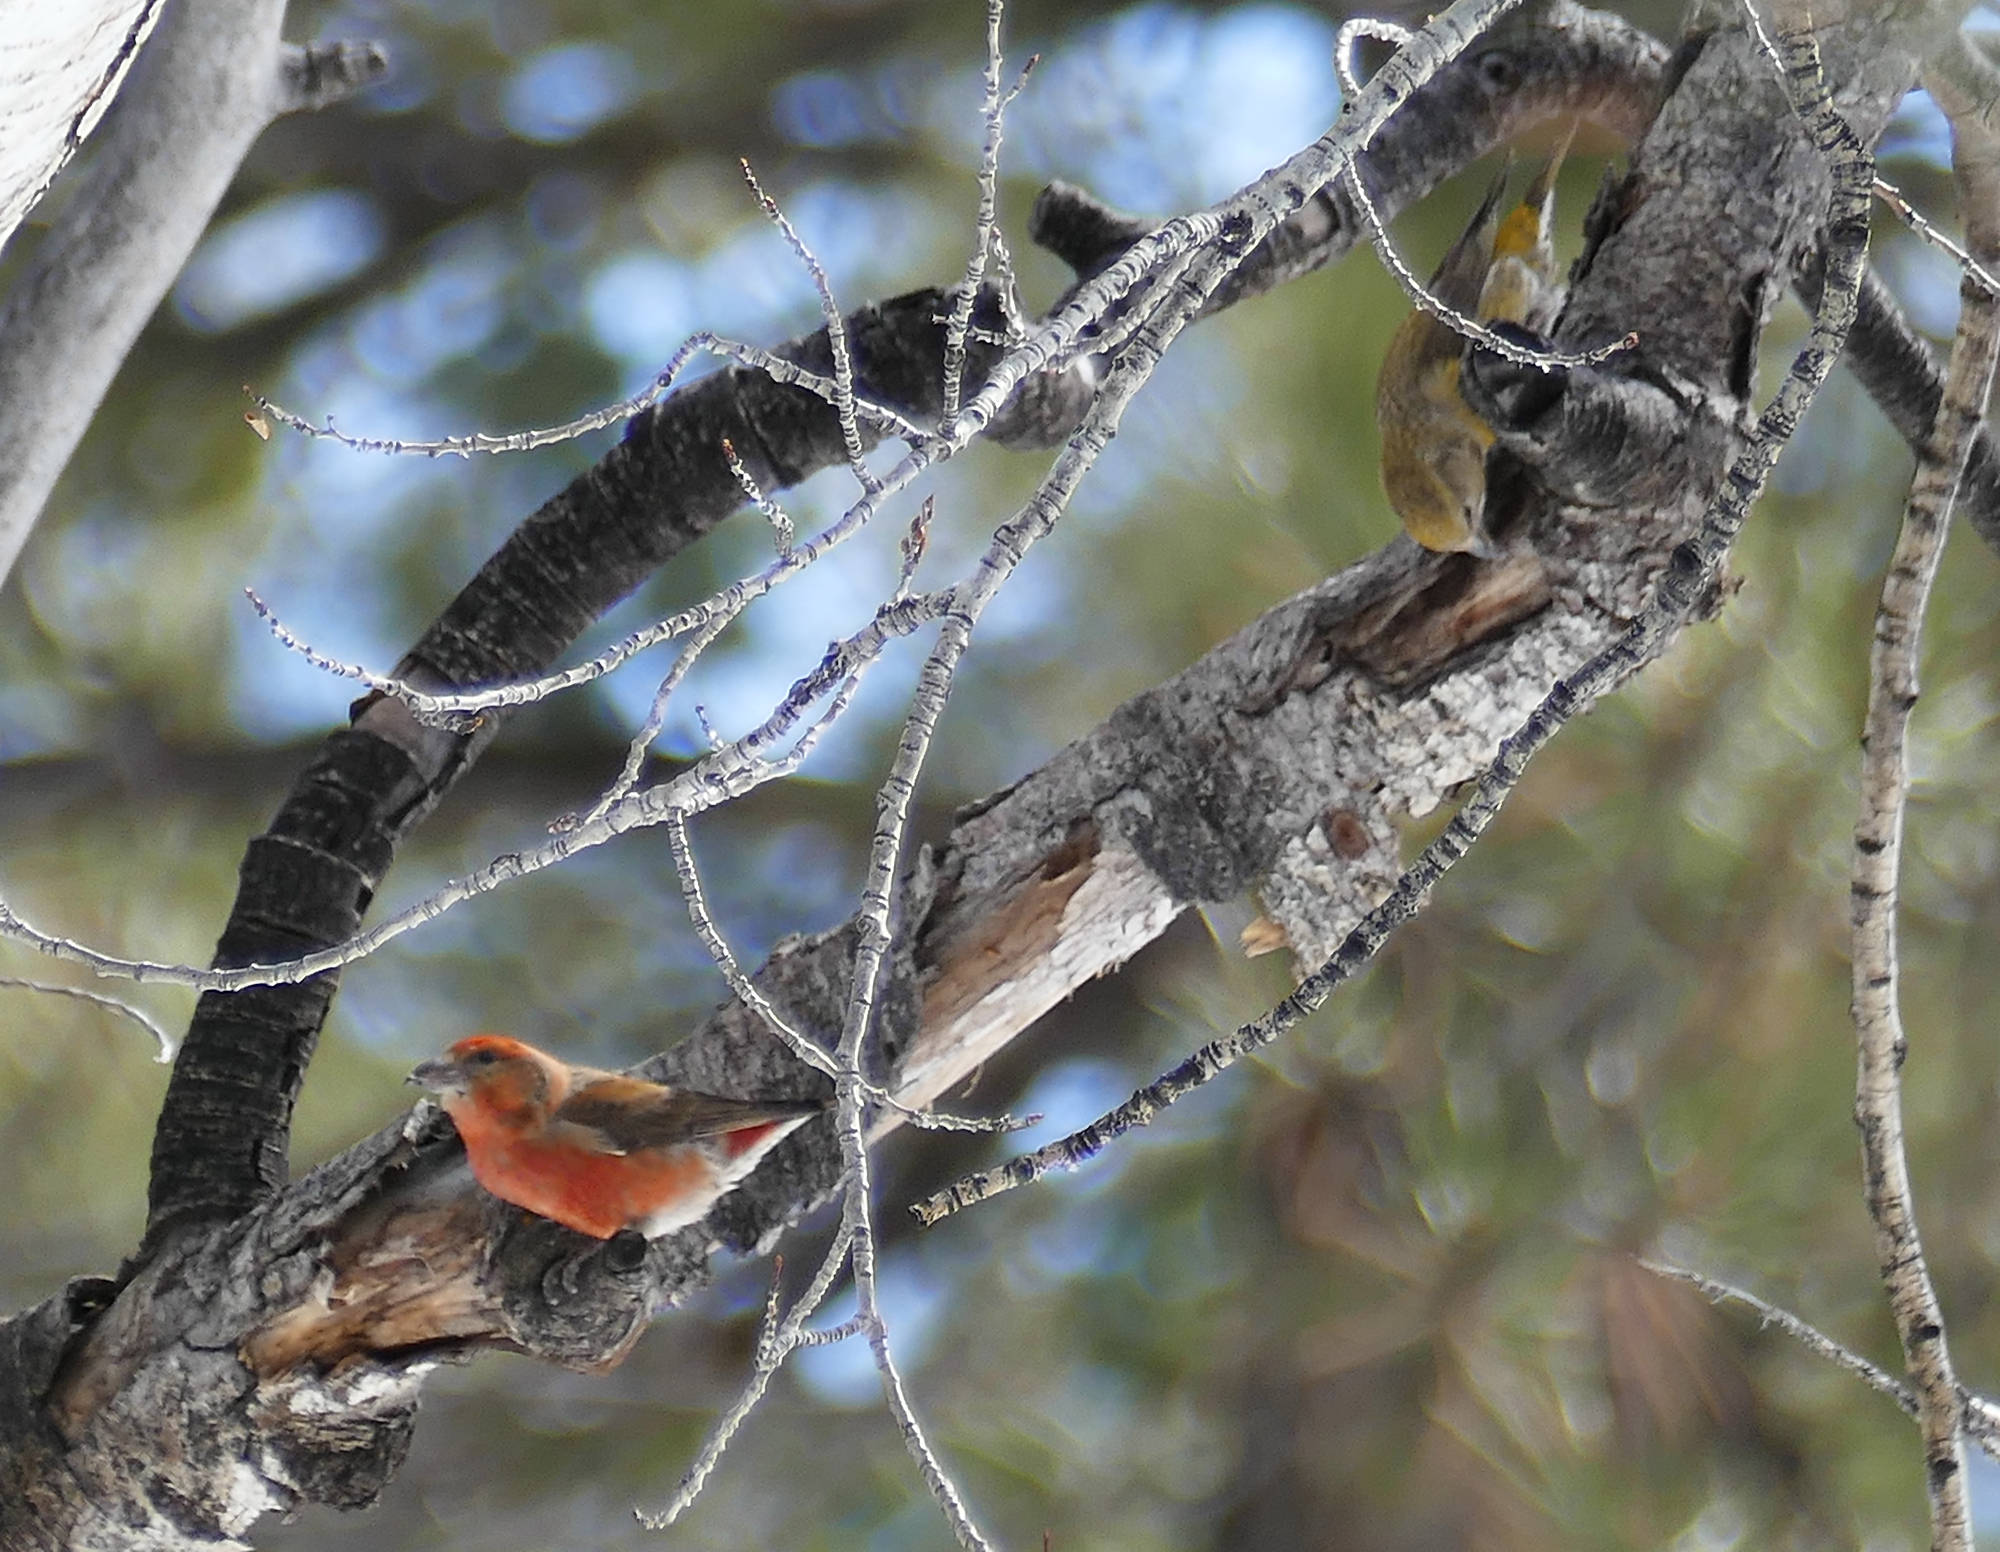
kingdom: Animalia
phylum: Chordata
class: Aves
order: Passeriformes
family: Fringillidae
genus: Loxia
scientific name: Loxia curvirostra
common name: Red crossbill
